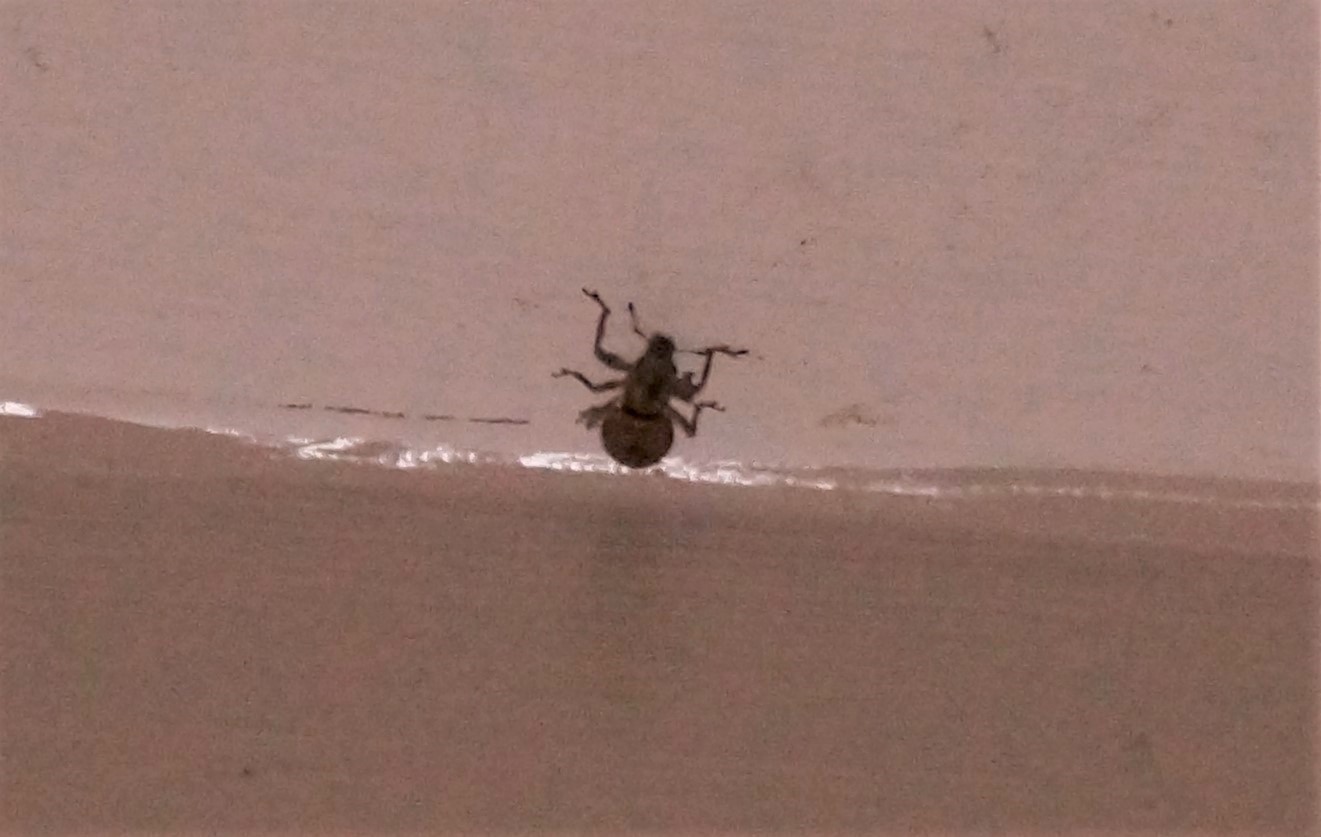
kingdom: Animalia
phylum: Arthropoda
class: Insecta
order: Coleoptera
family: Curculionidae
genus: Naupactus
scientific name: Naupactus cervinus
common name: Fuller rose beetle
